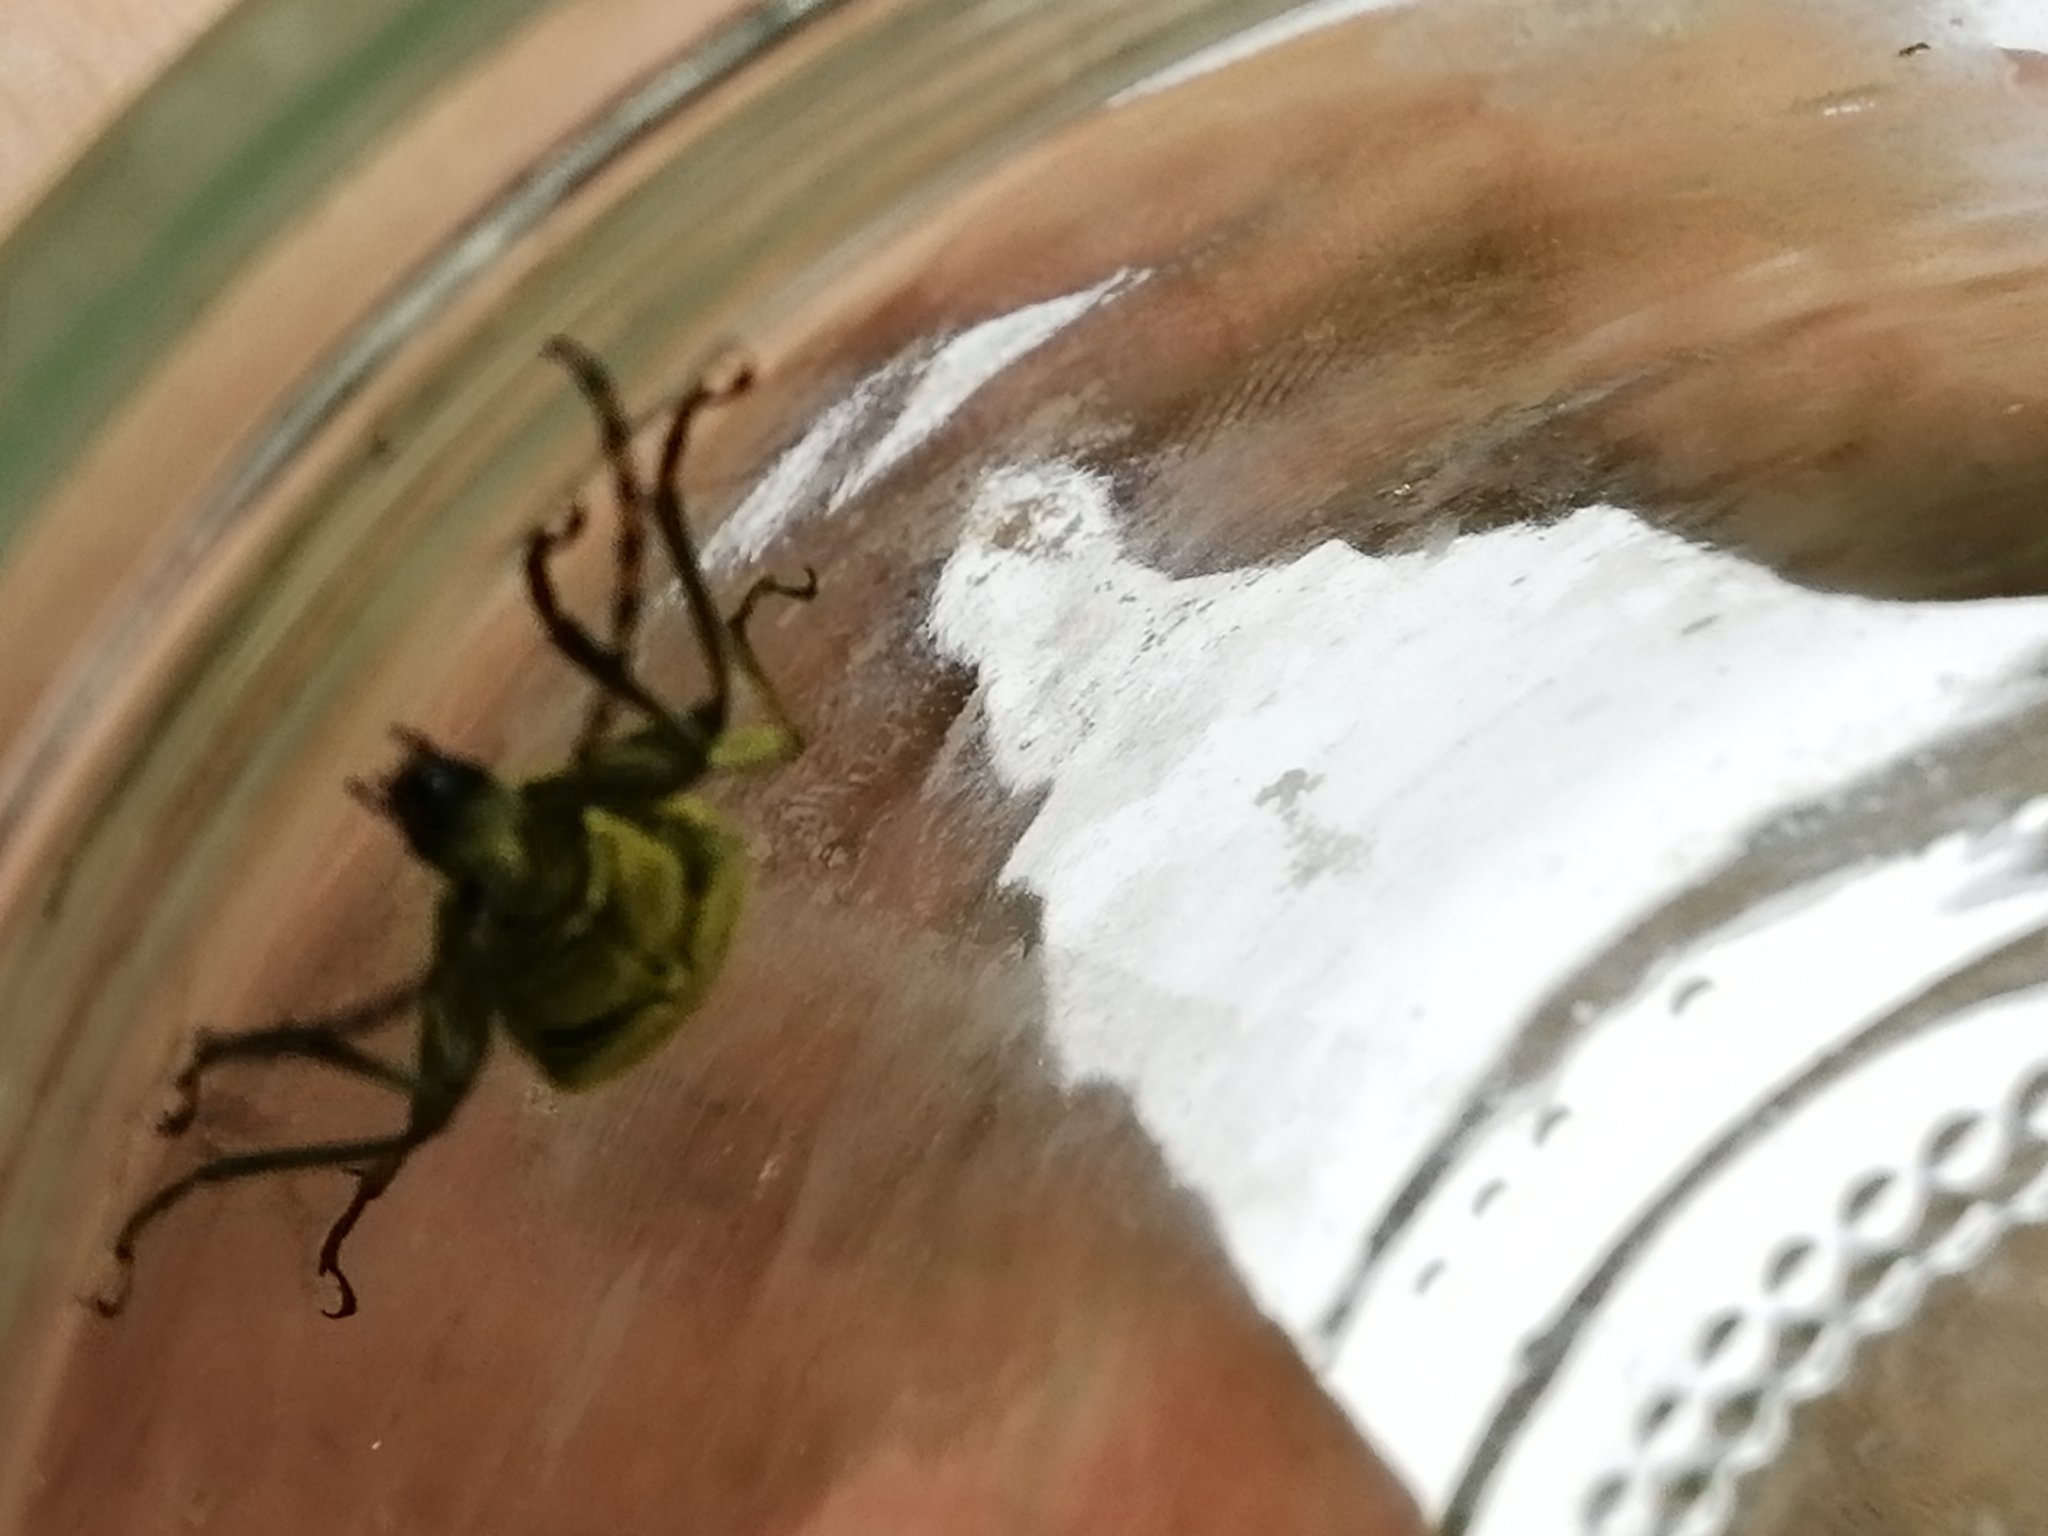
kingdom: Animalia
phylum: Arthropoda
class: Insecta
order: Coleoptera
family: Cerambycidae
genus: Lepturobosca
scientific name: Lepturobosca virens
